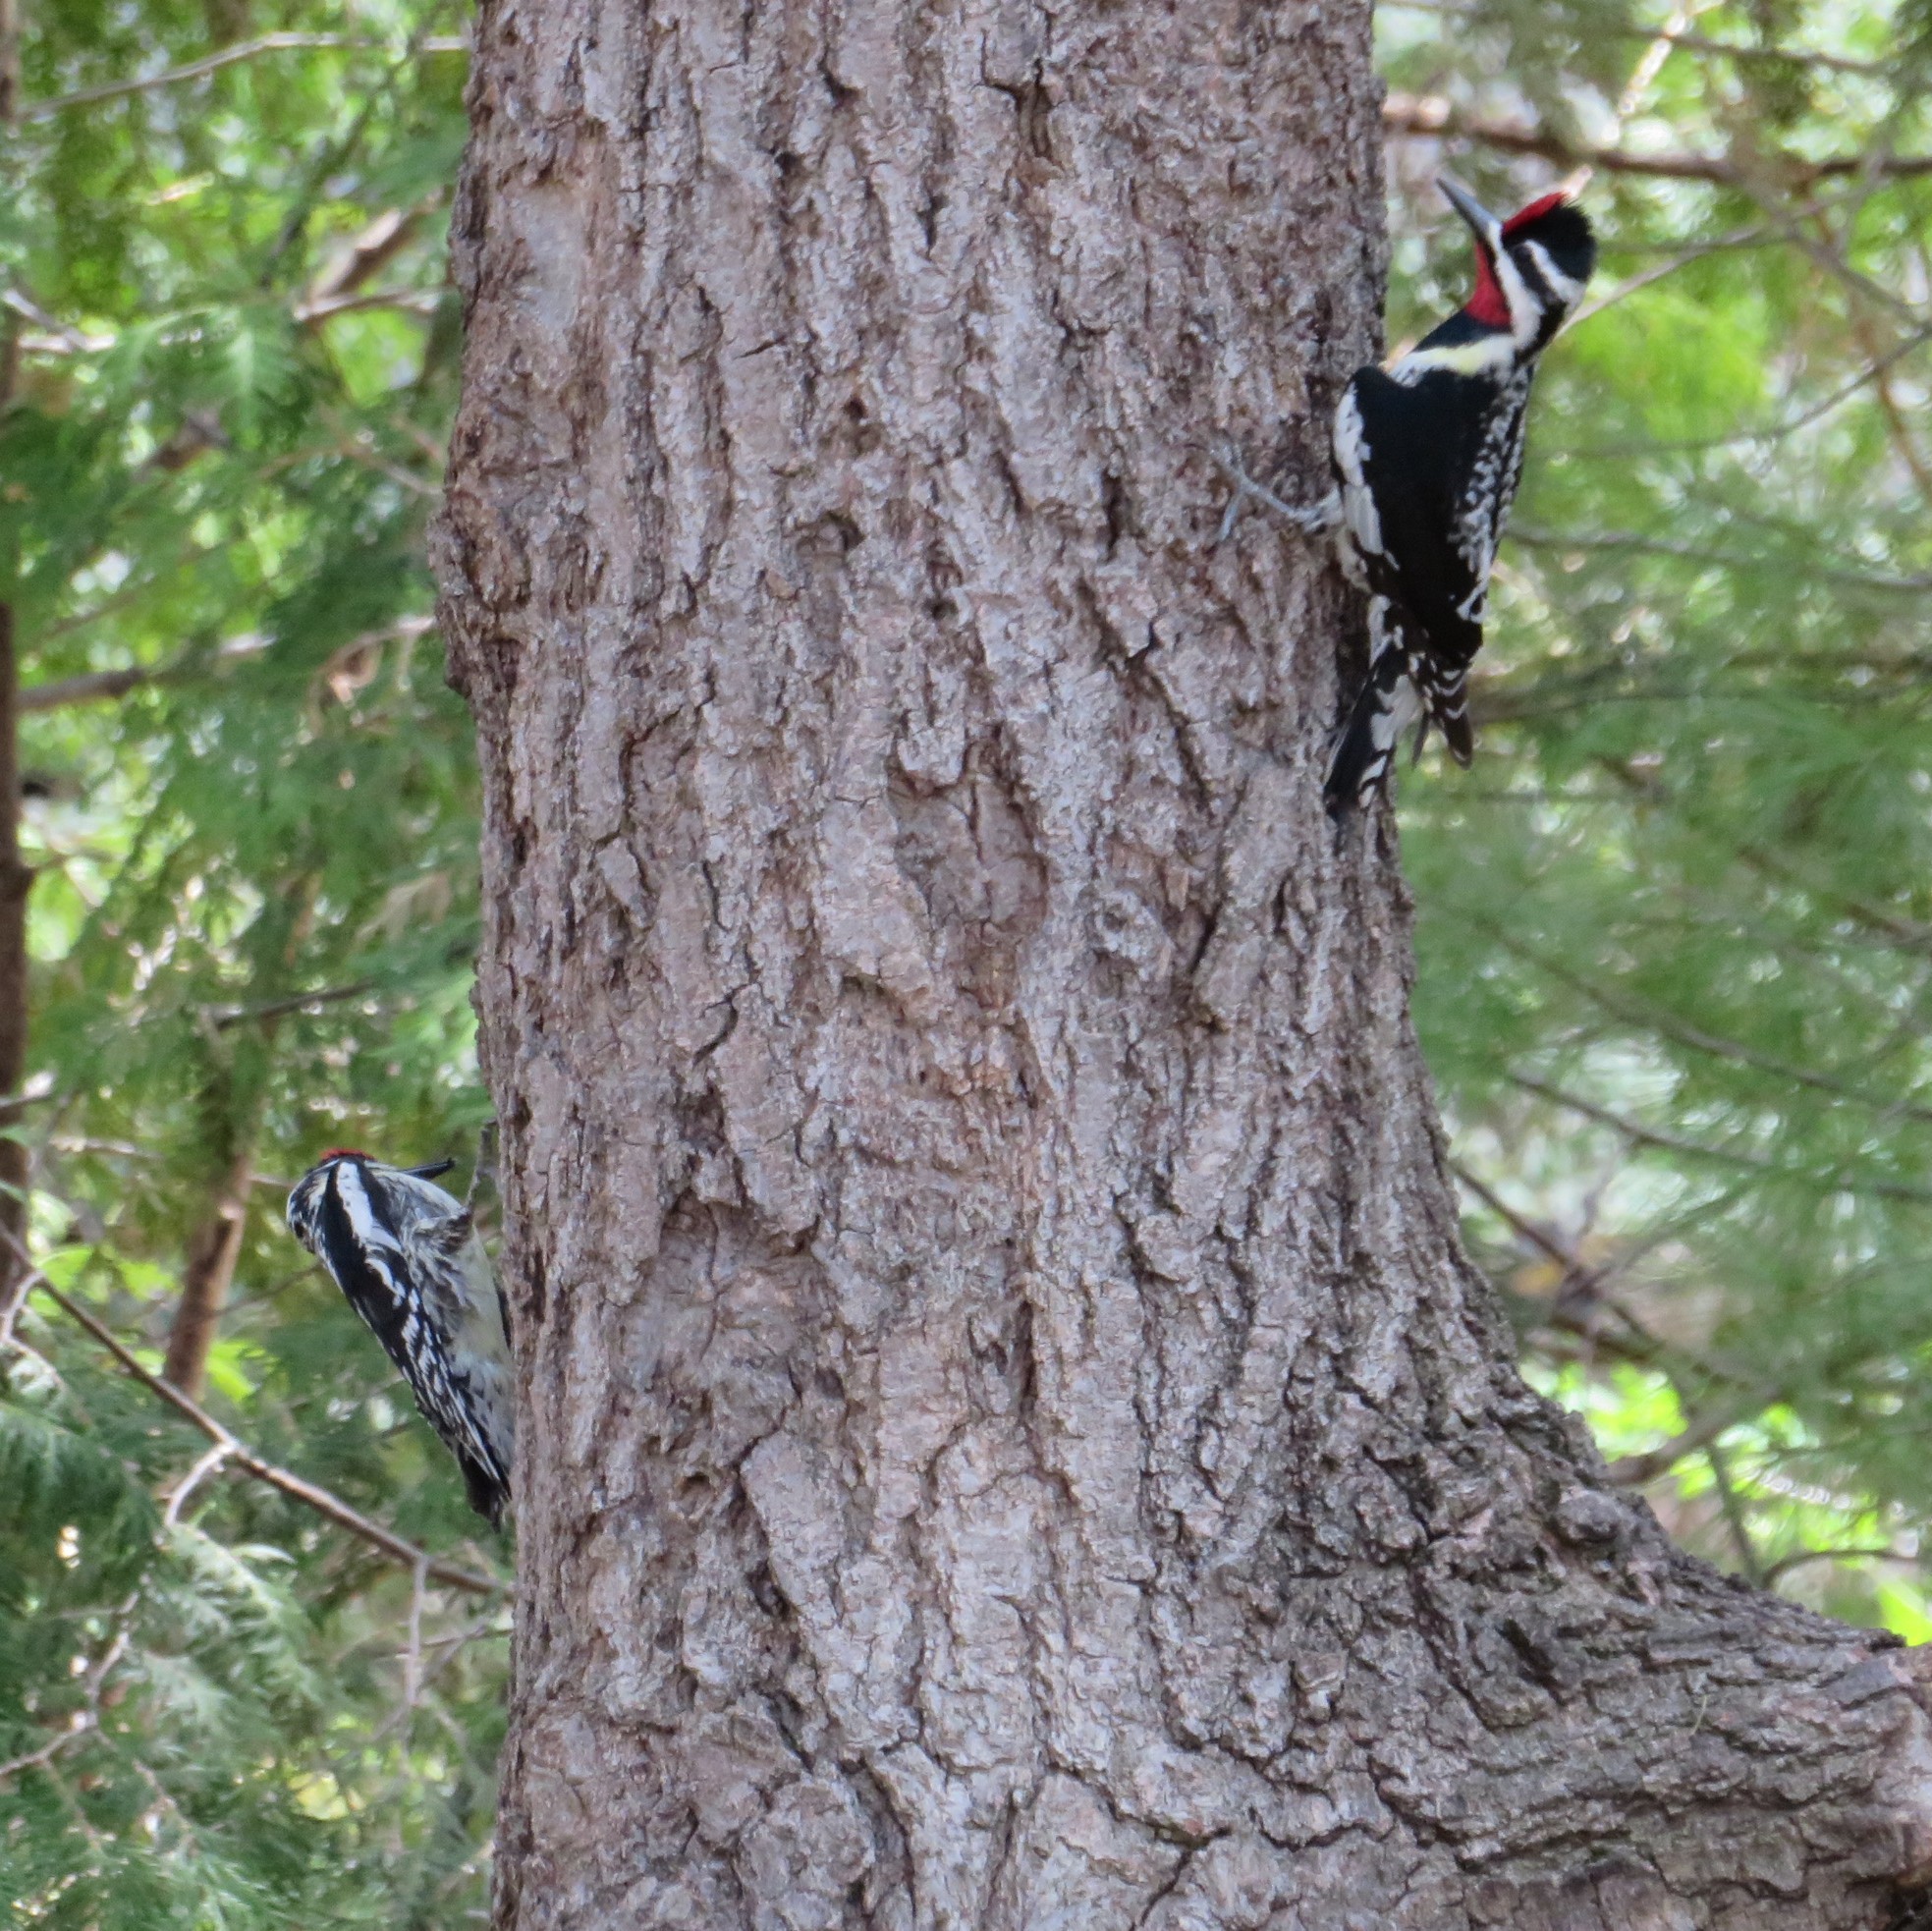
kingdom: Animalia
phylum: Chordata
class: Aves
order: Piciformes
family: Picidae
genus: Sphyrapicus
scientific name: Sphyrapicus varius
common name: Yellow-bellied sapsucker
